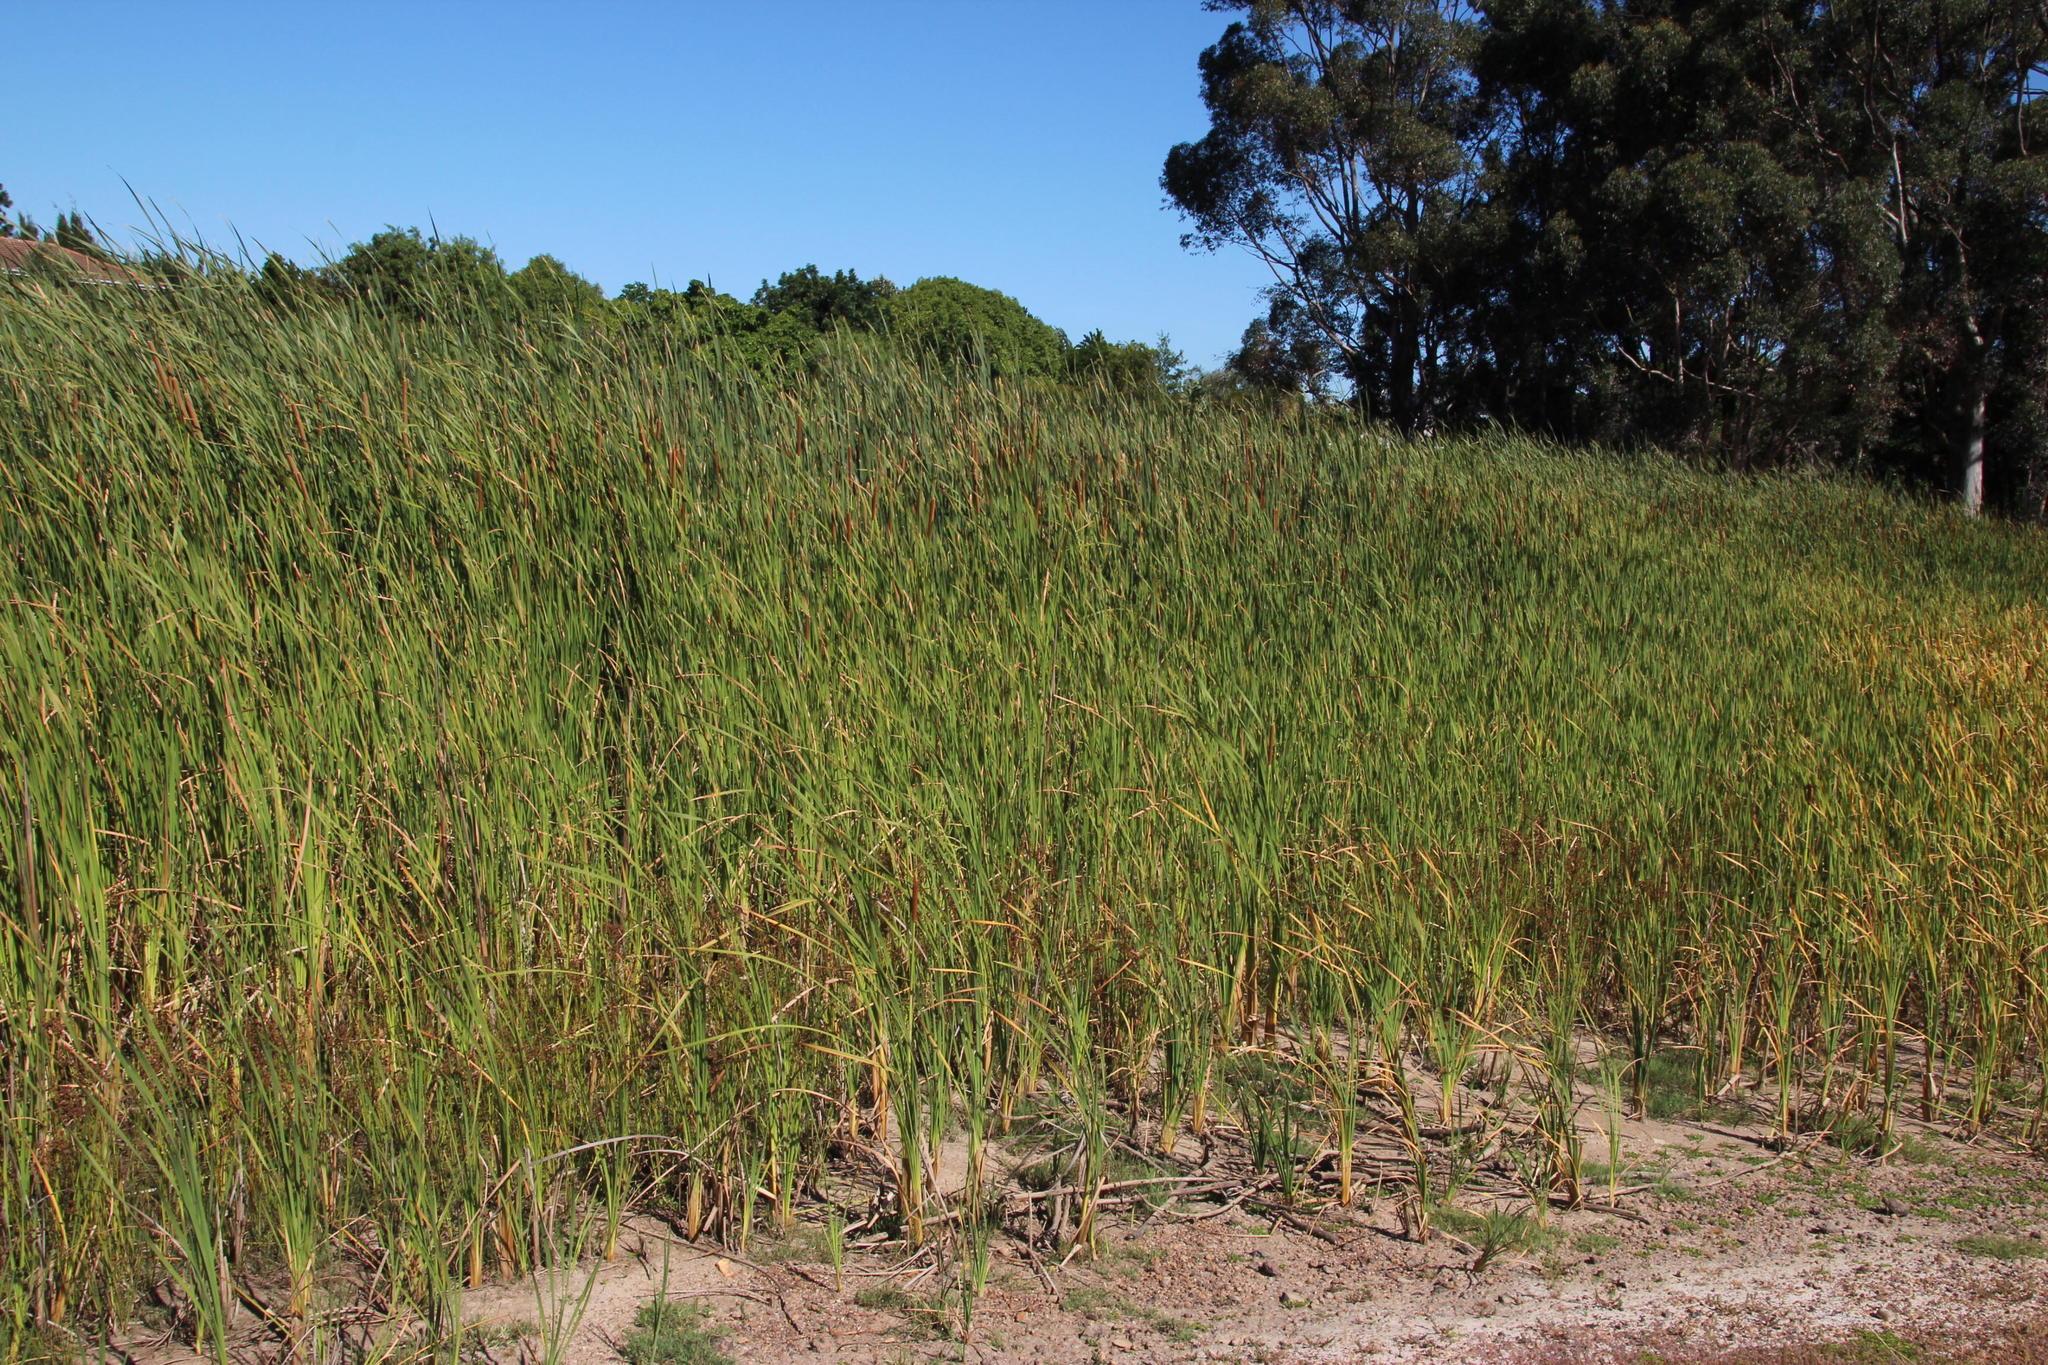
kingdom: Plantae
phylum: Tracheophyta
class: Liliopsida
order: Poales
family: Typhaceae
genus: Typha
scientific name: Typha capensis
